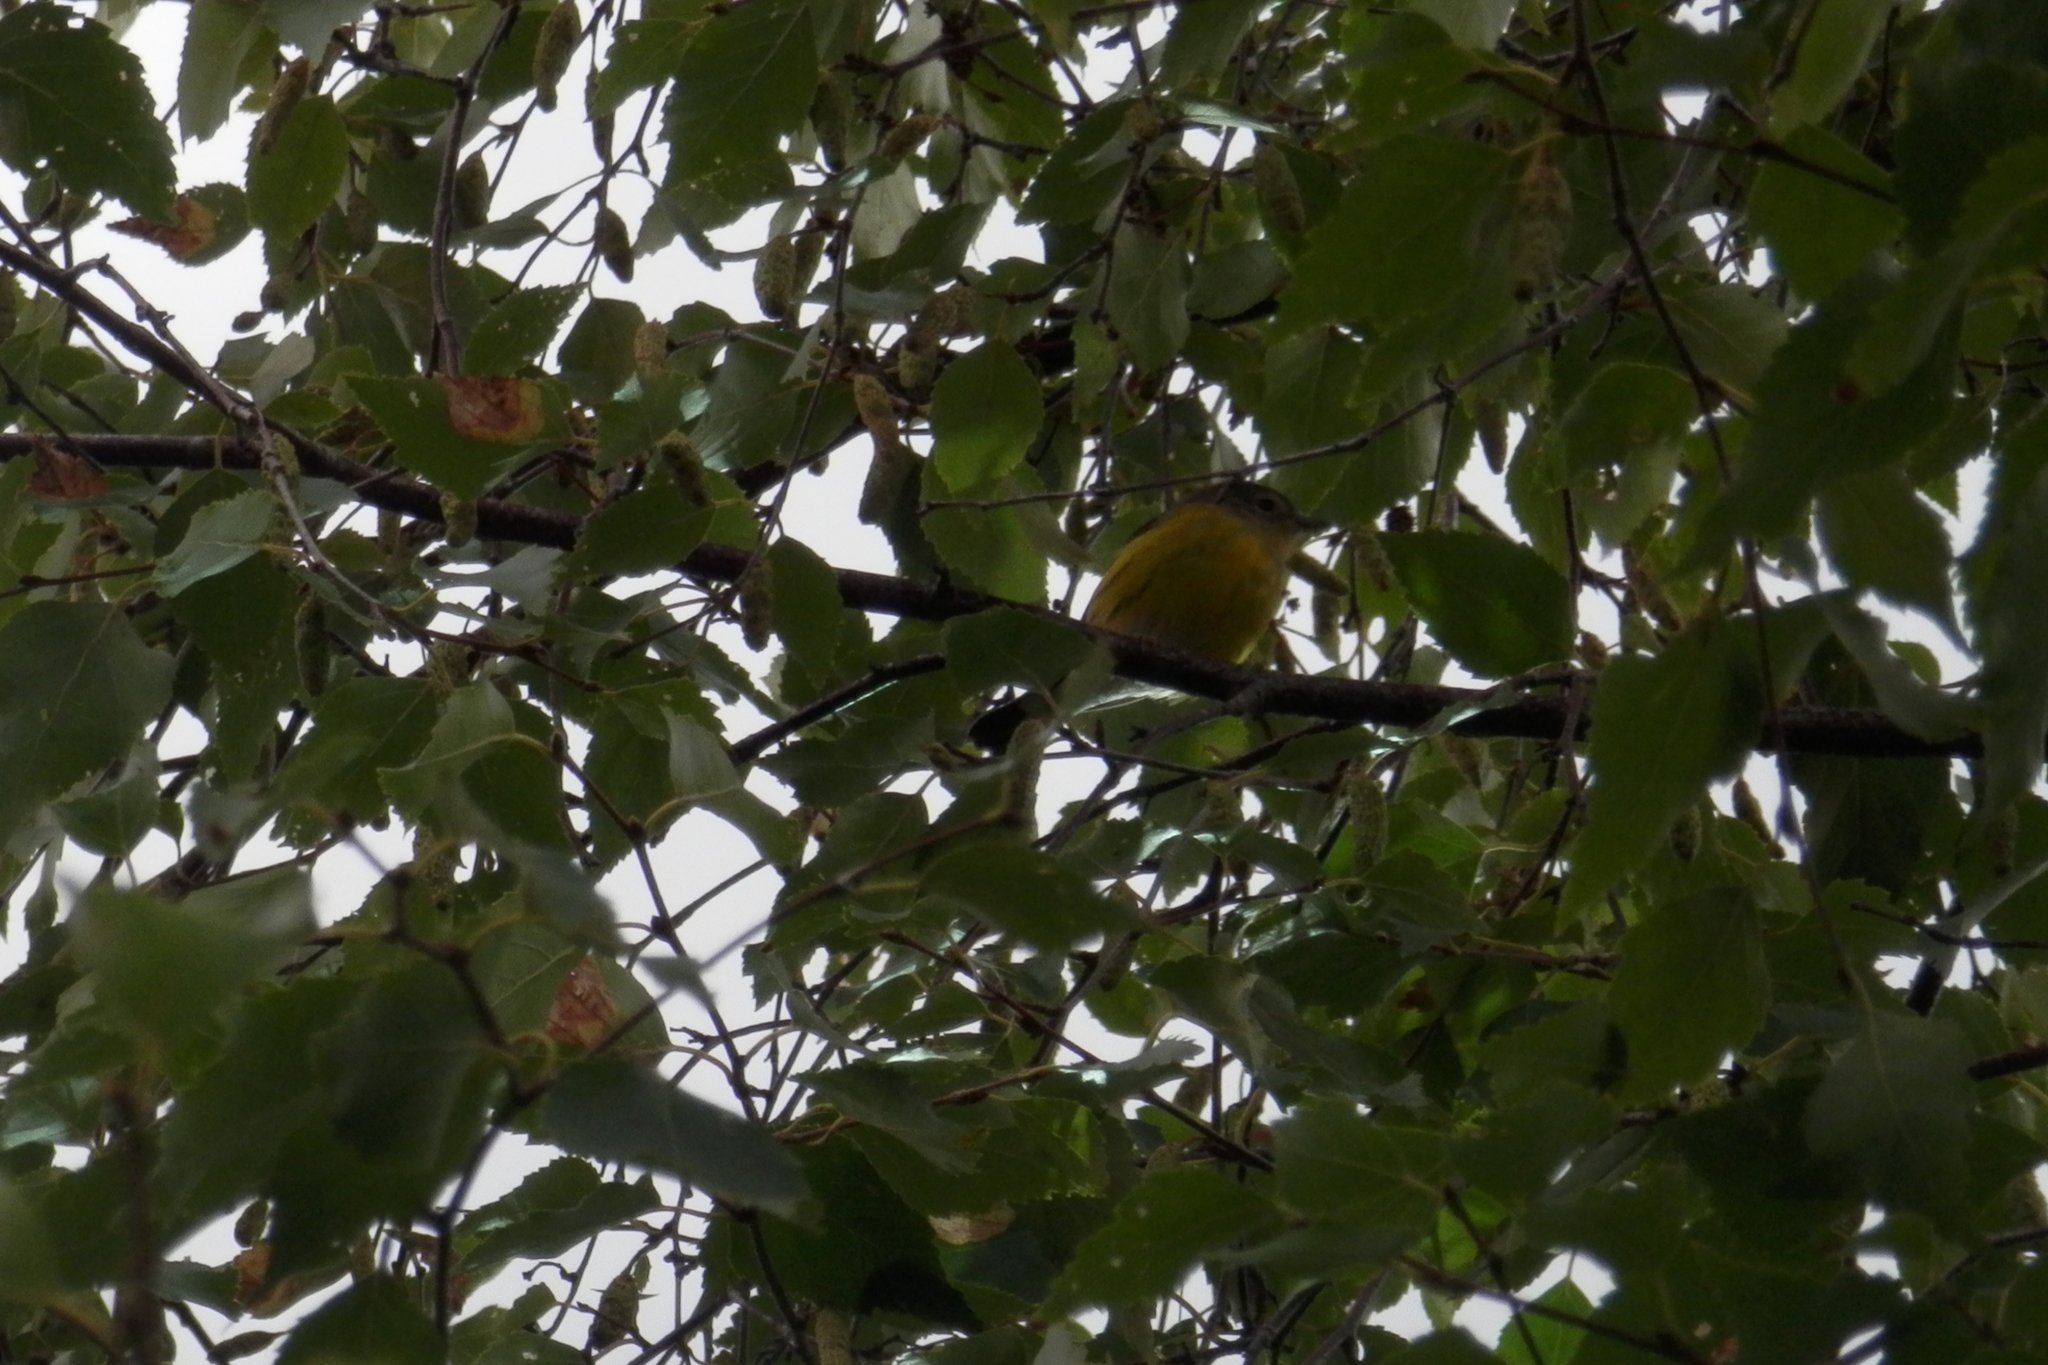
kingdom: Animalia
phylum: Chordata
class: Aves
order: Passeriformes
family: Parulidae
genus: Setophaga
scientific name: Setophaga magnolia
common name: Magnolia warbler
